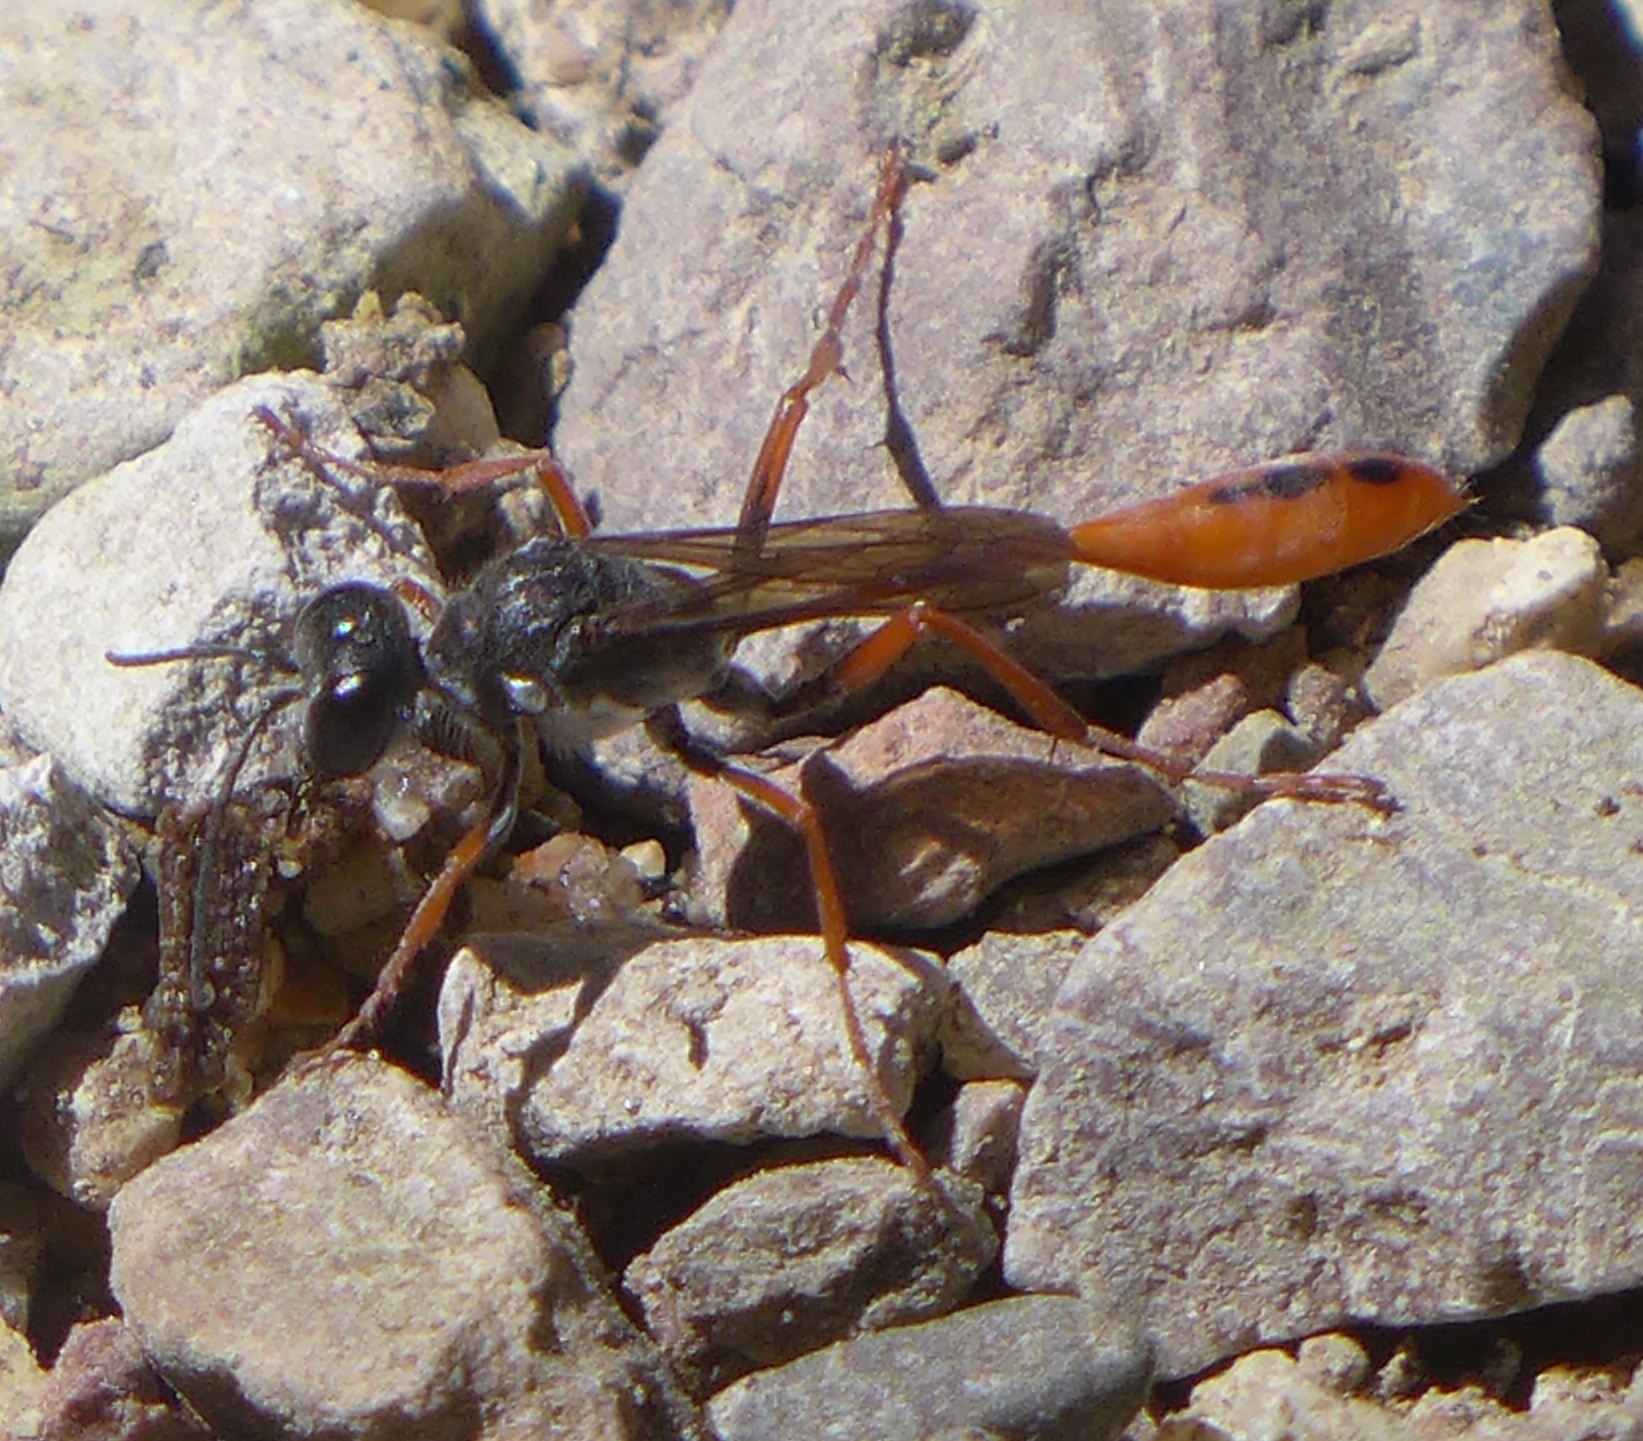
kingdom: Animalia
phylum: Arthropoda
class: Insecta
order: Hymenoptera
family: Sphecidae
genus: Ammophila
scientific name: Ammophila femurrubra
